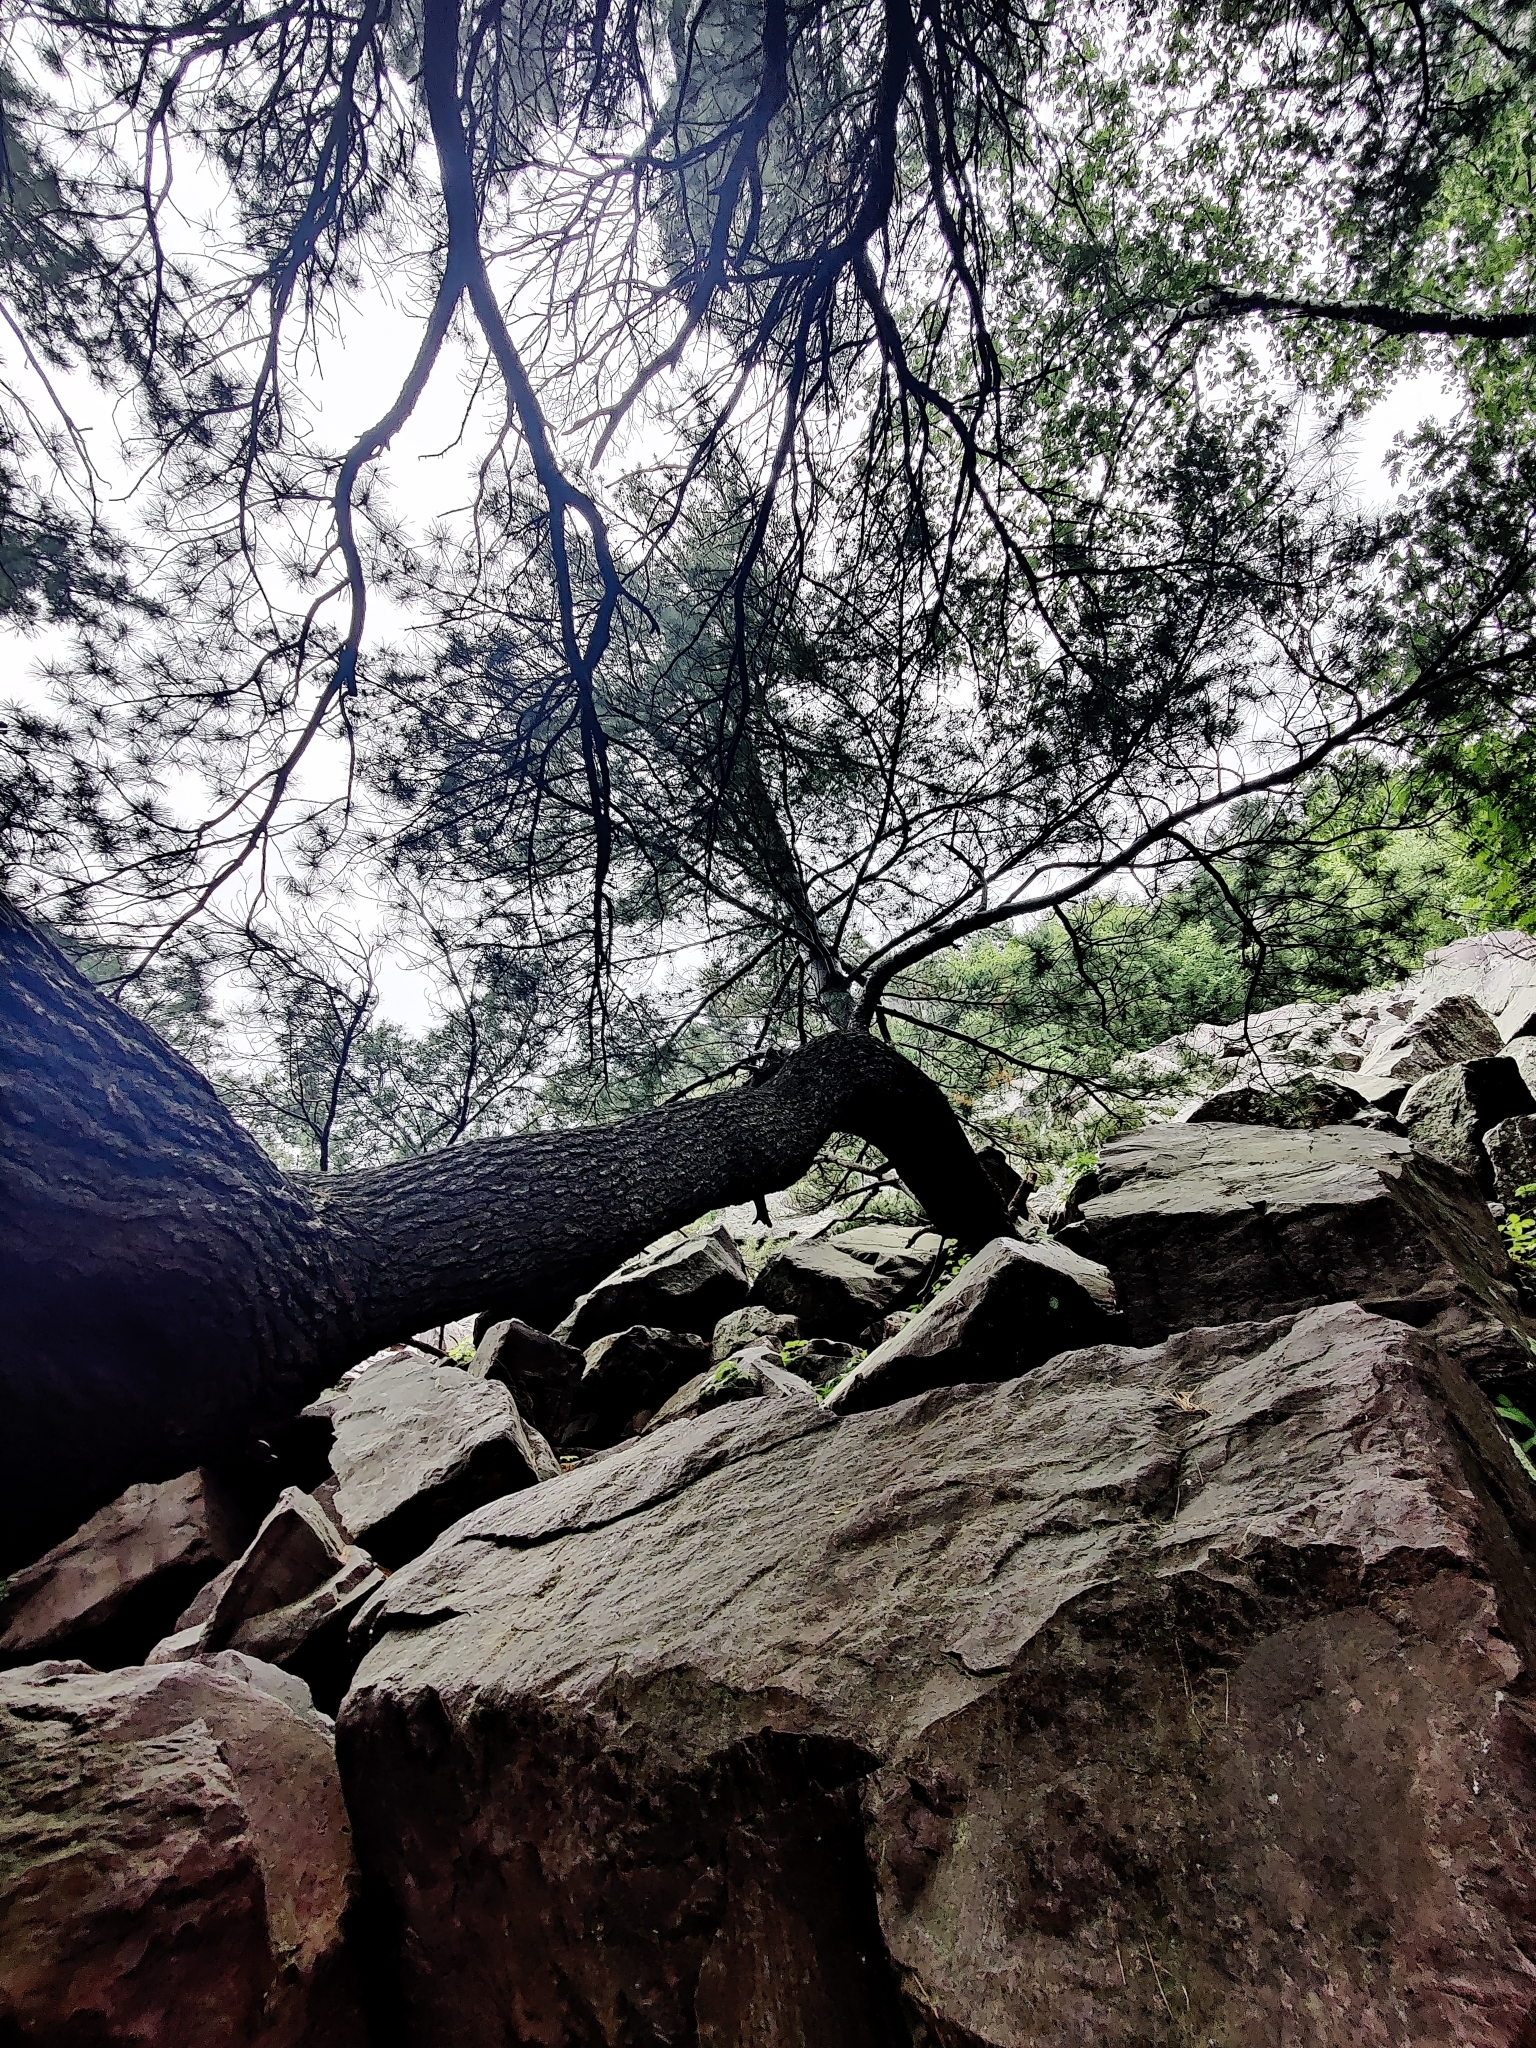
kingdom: Plantae
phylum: Tracheophyta
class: Pinopsida
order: Pinales
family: Pinaceae
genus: Pinus
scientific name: Pinus strobus
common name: Weymouth pine
